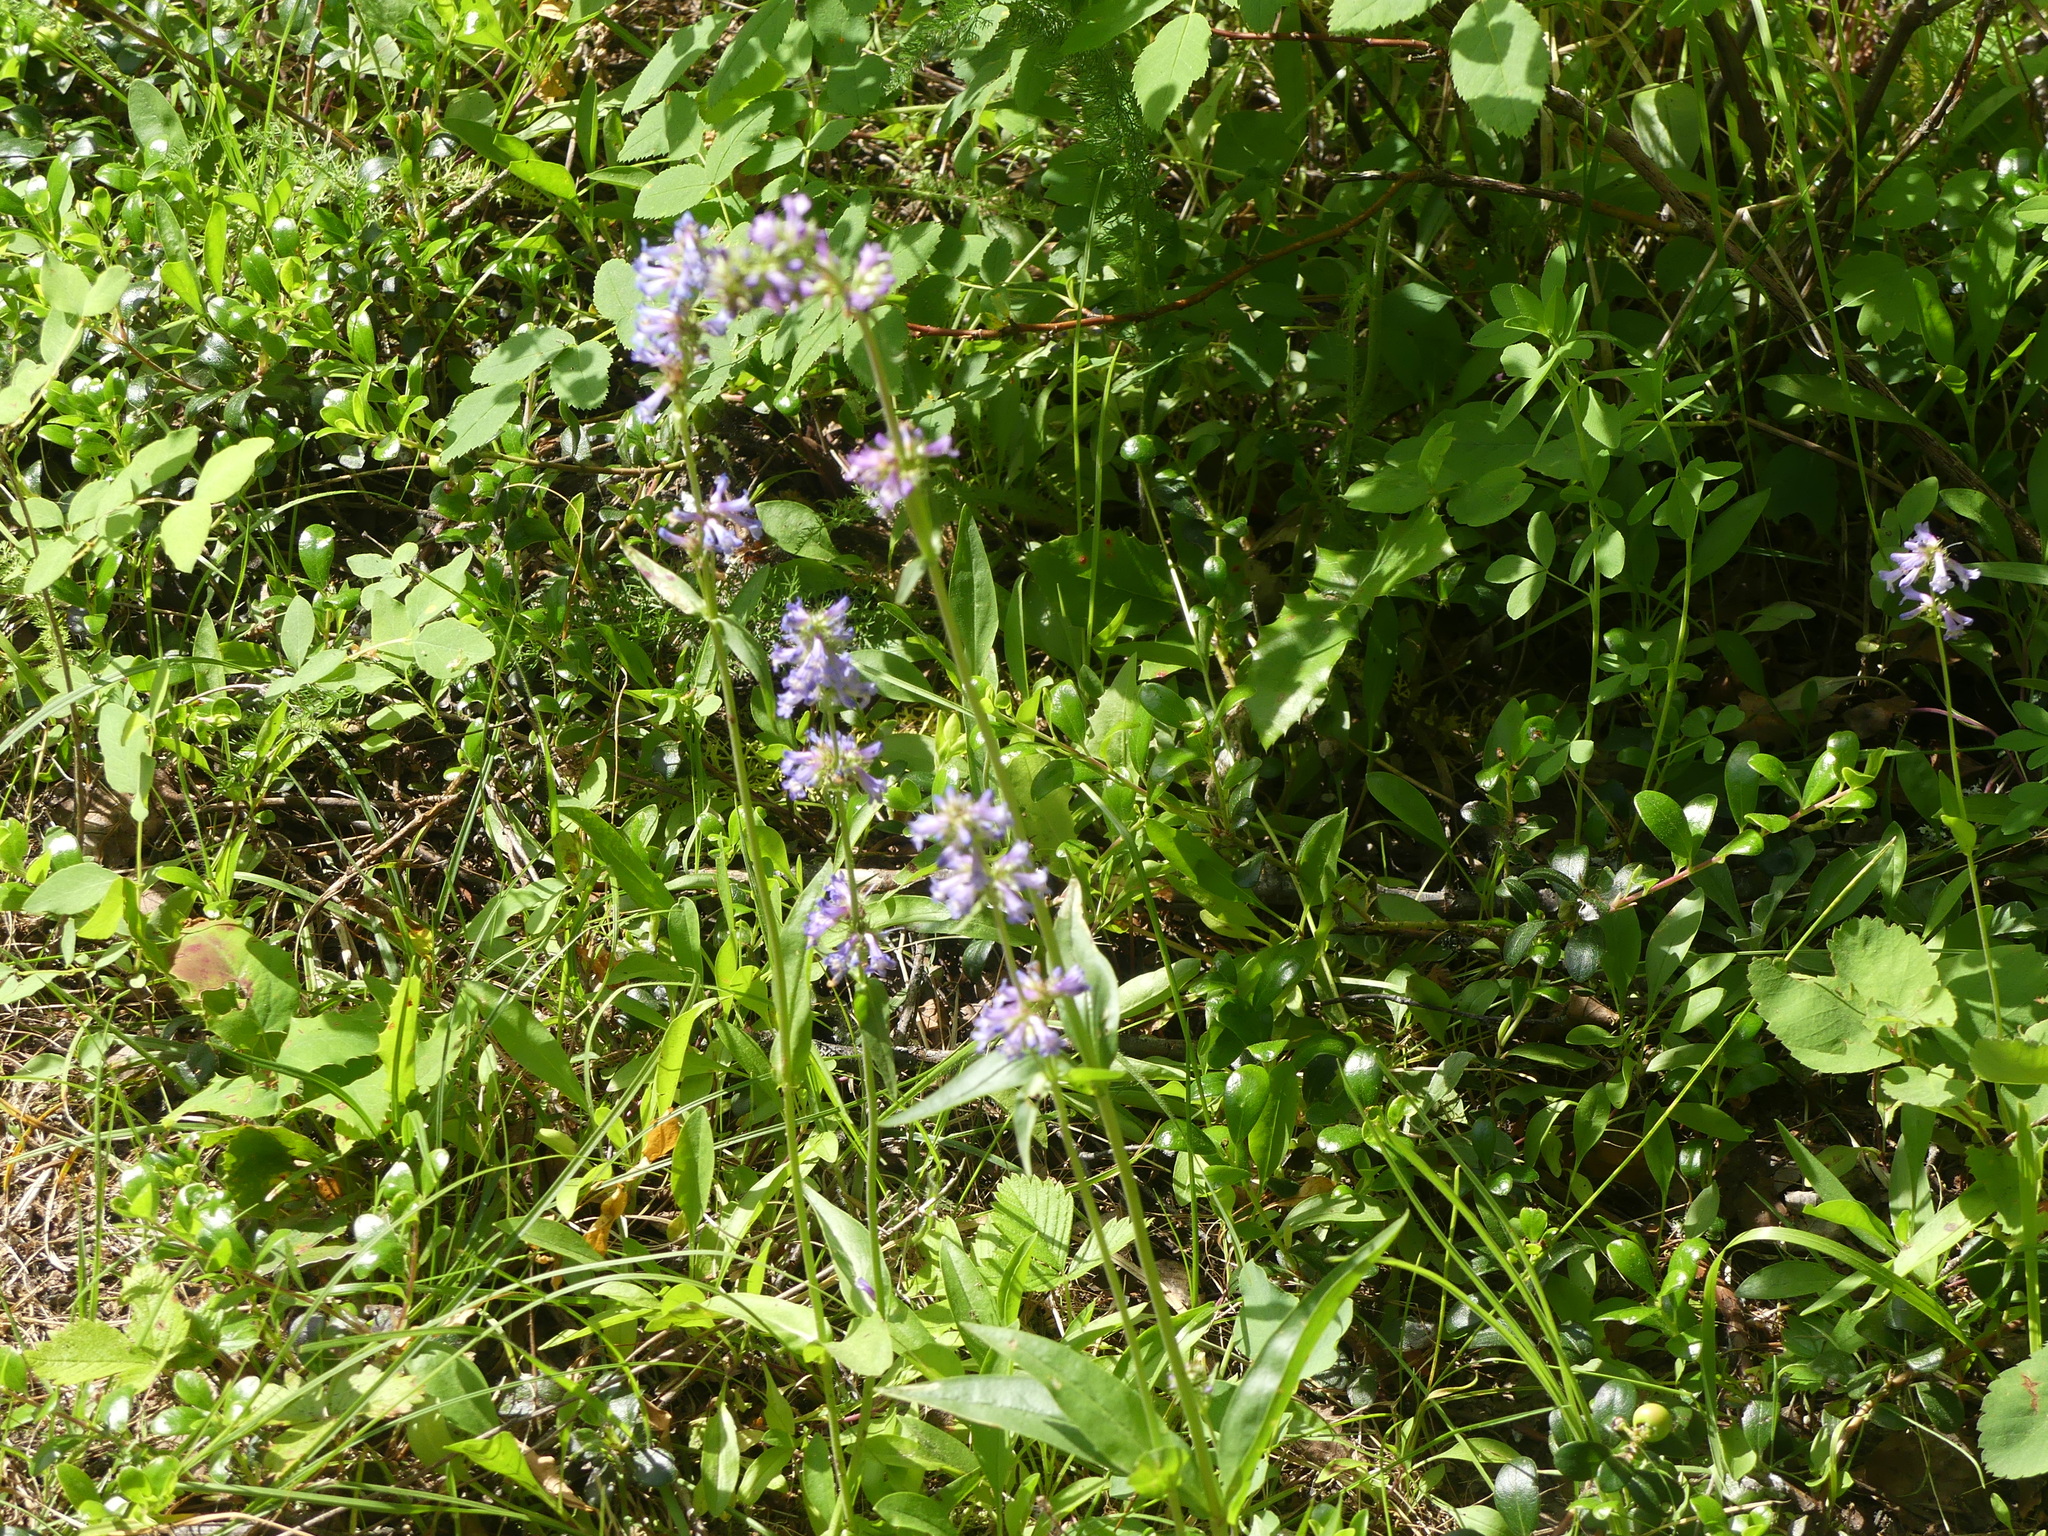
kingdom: Plantae
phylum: Tracheophyta
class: Magnoliopsida
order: Lamiales
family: Plantaginaceae
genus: Penstemon
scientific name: Penstemon procerus
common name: Small-flower penstemon
